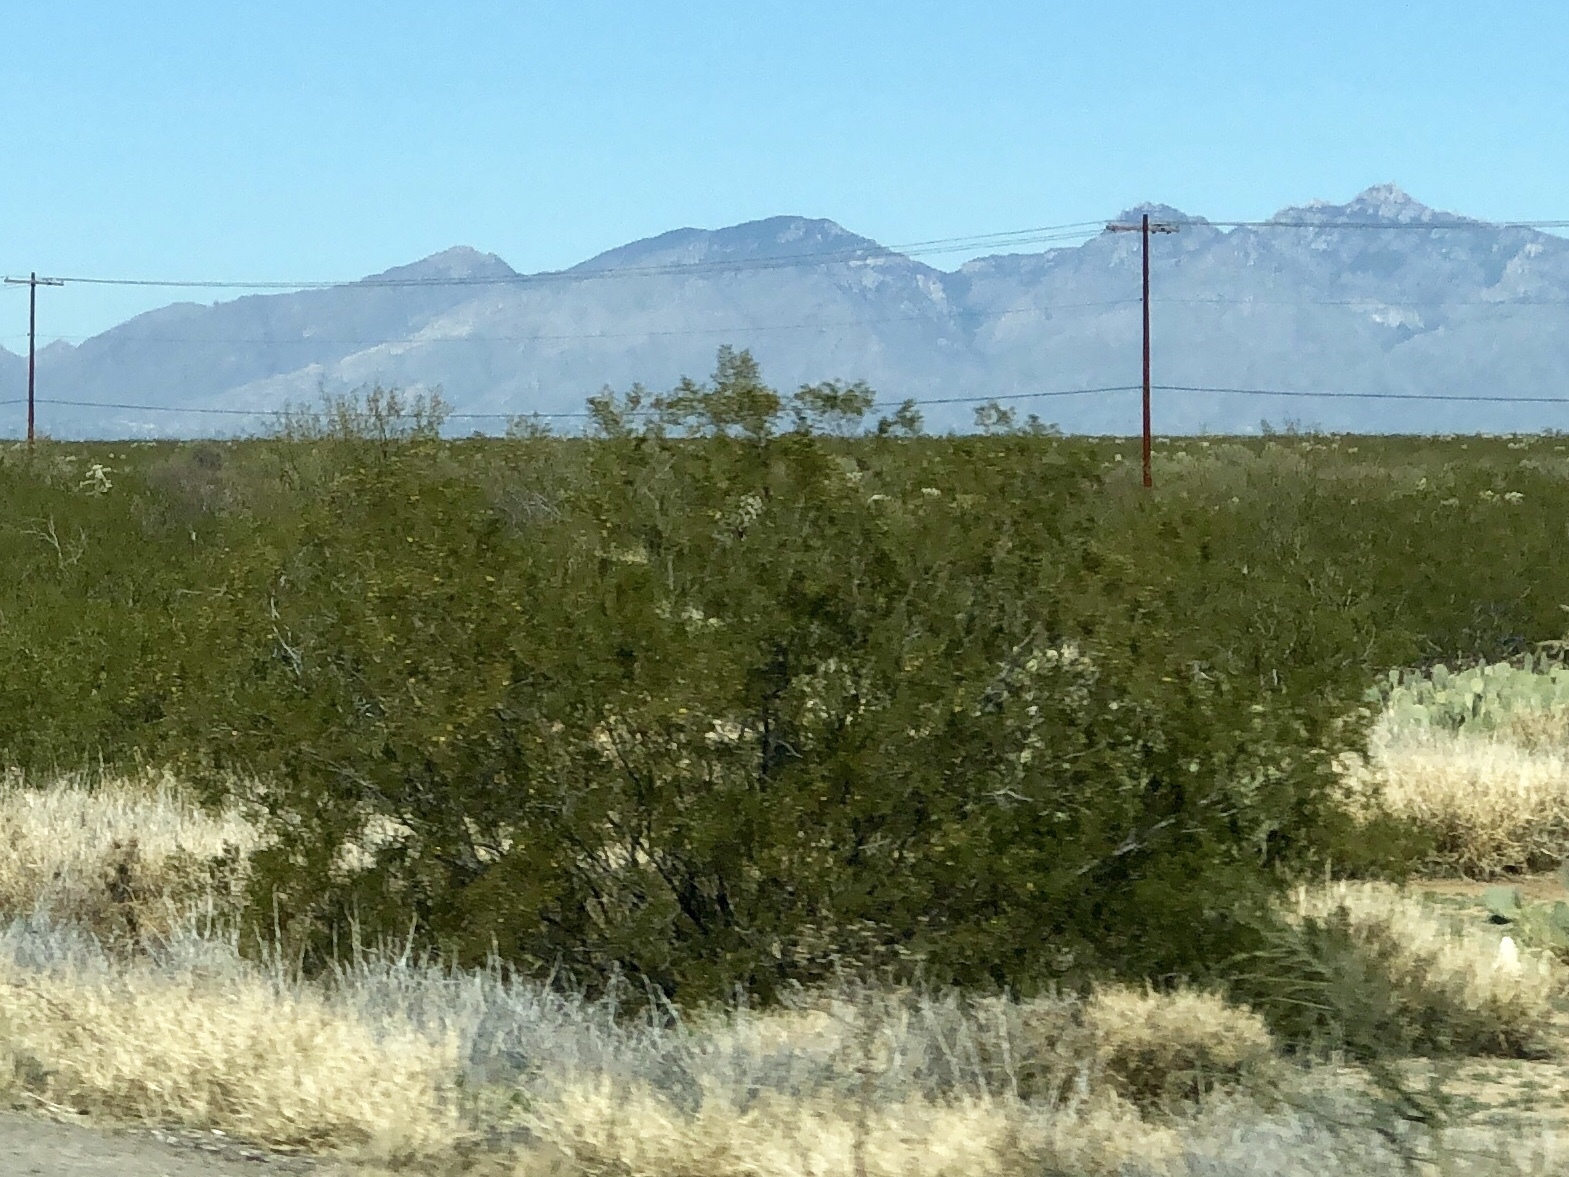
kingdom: Plantae
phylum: Tracheophyta
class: Magnoliopsida
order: Zygophyllales
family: Zygophyllaceae
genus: Larrea
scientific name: Larrea tridentata
